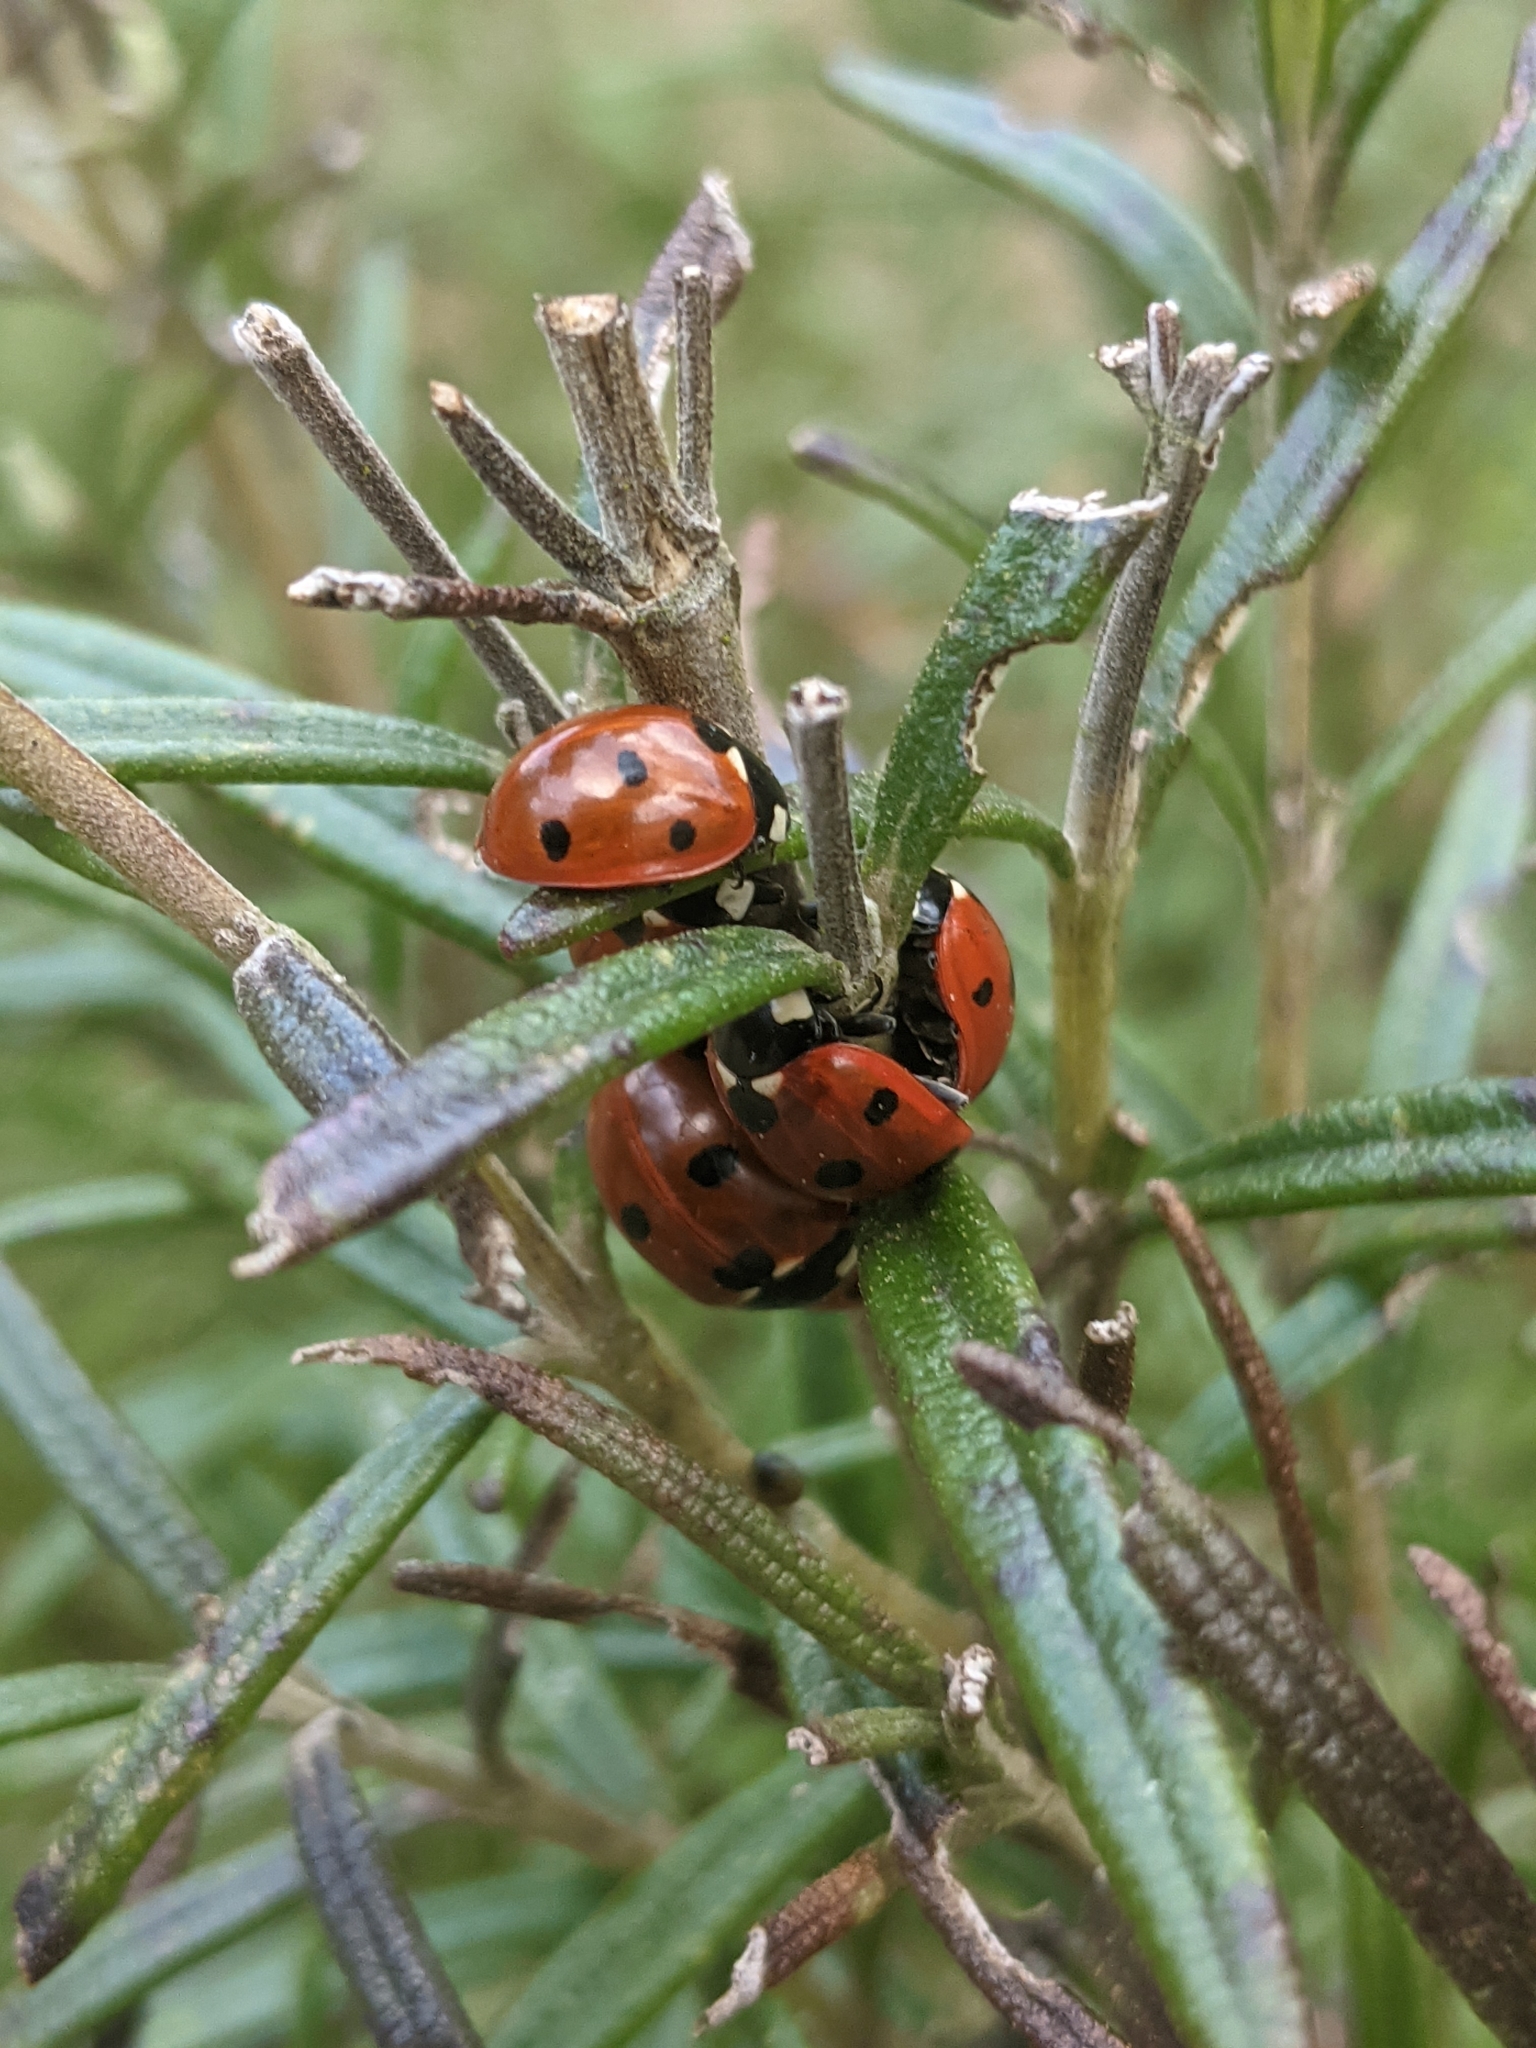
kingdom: Animalia
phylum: Arthropoda
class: Insecta
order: Coleoptera
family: Coccinellidae
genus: Coccinella
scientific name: Coccinella septempunctata
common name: Sevenspotted lady beetle
